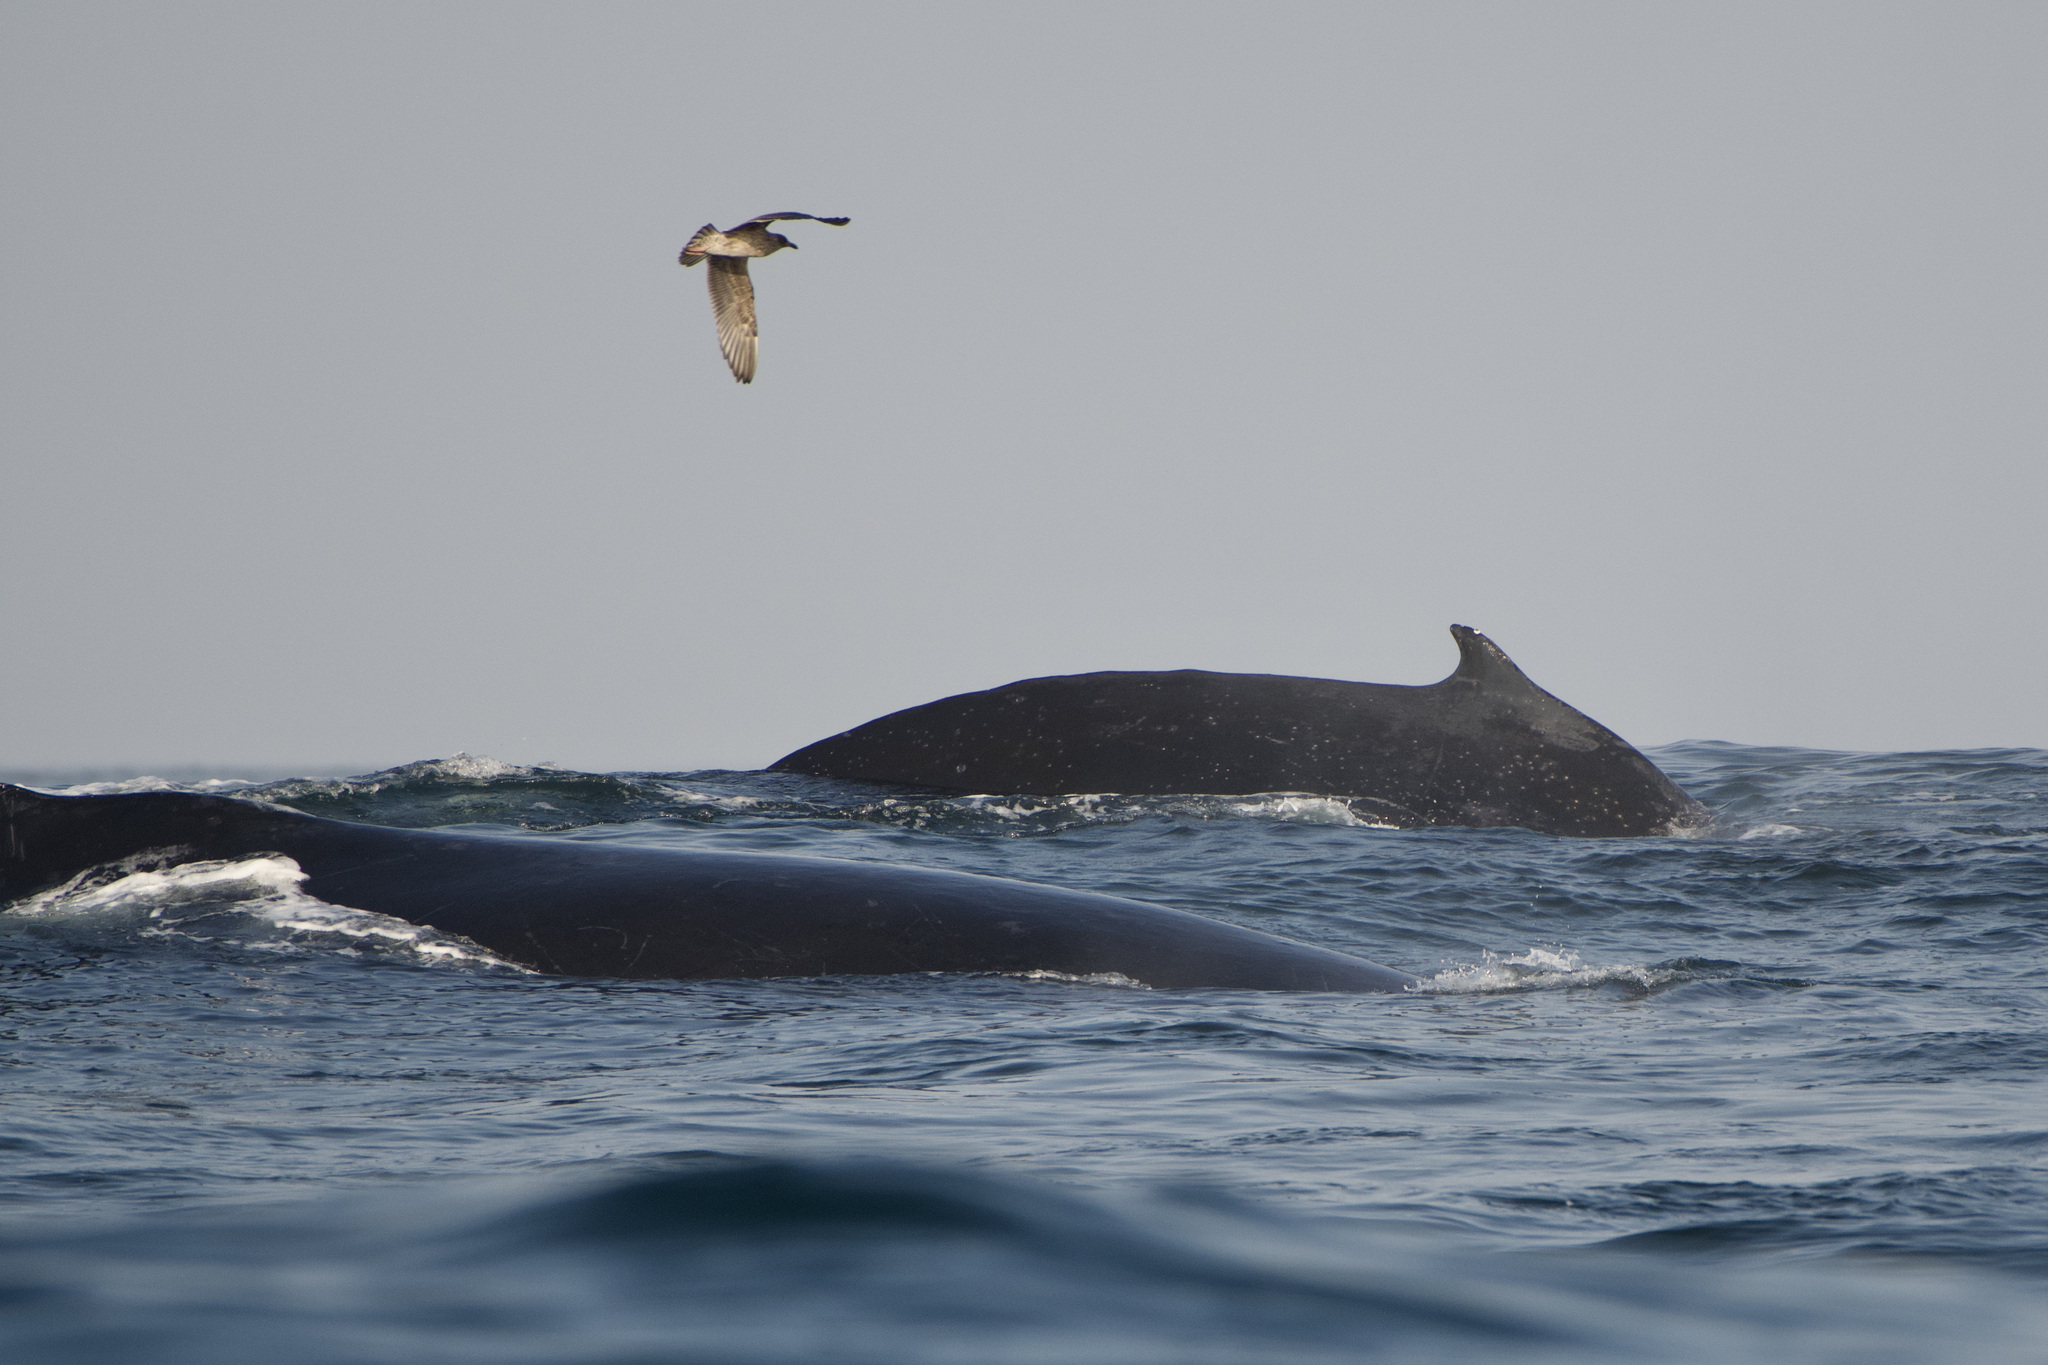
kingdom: Animalia
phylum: Chordata
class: Mammalia
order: Cetacea
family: Balaenopteridae
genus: Megaptera
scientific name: Megaptera novaeangliae
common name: Humpback whale
